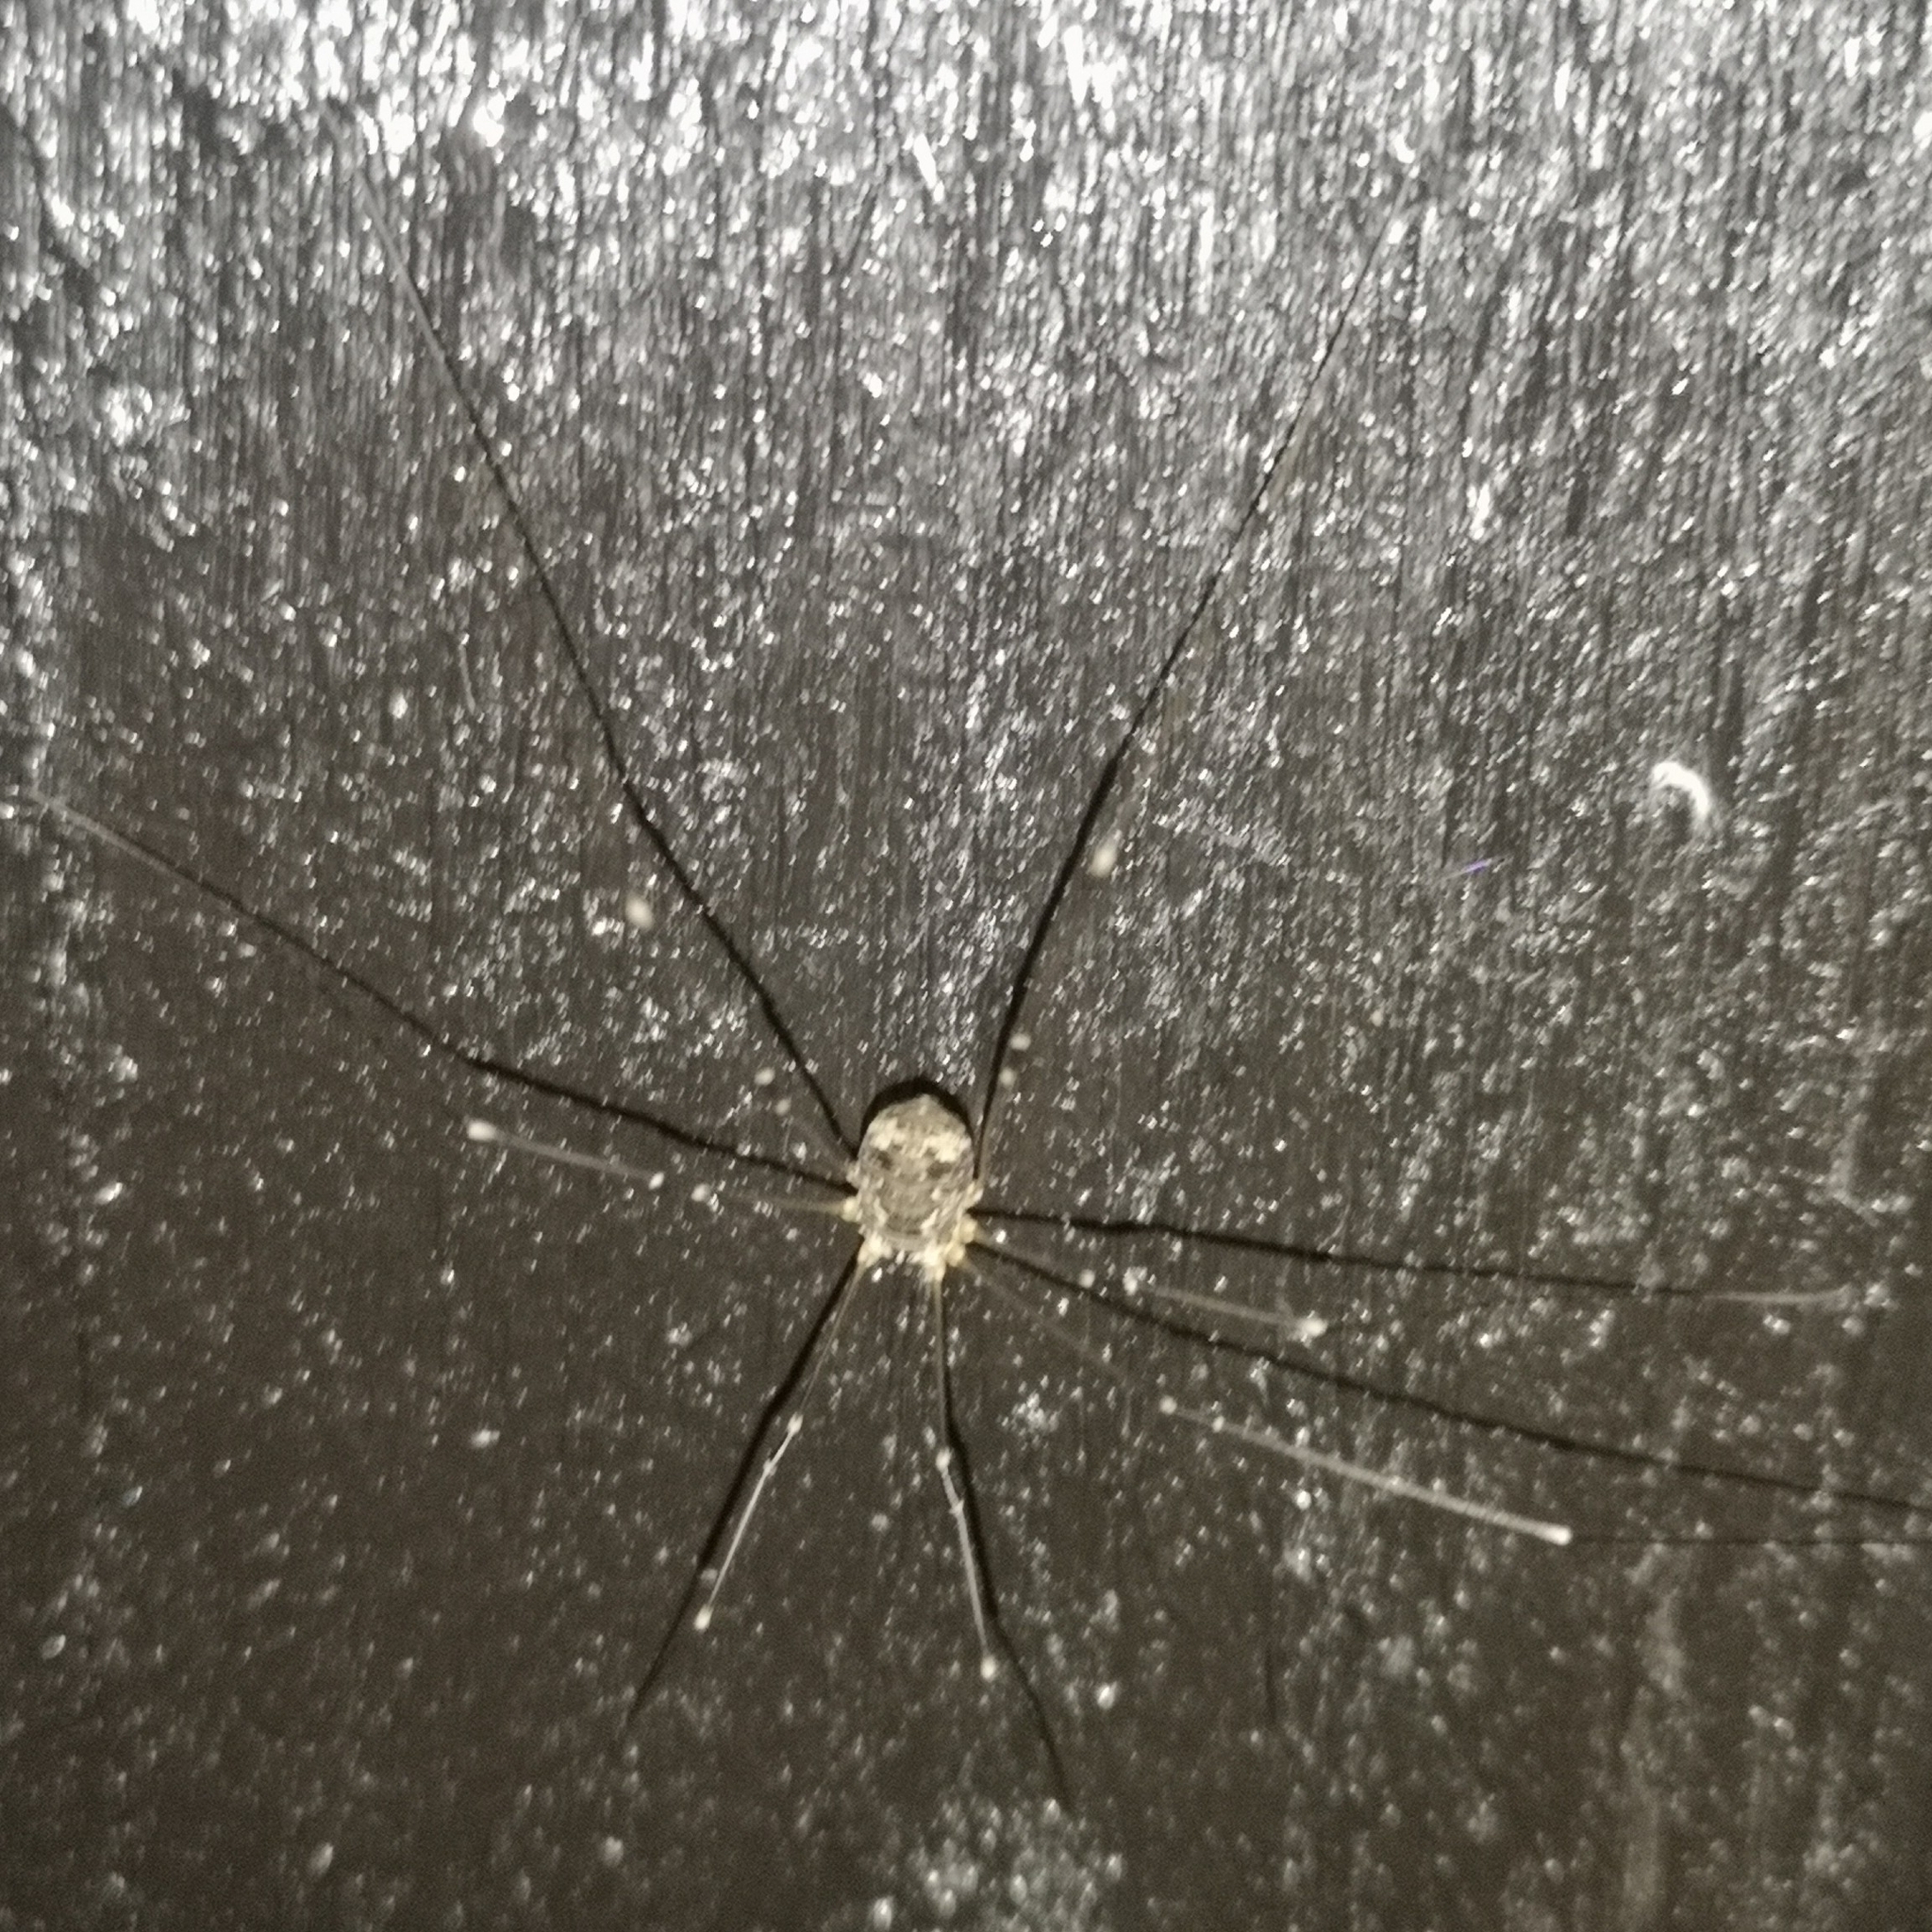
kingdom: Animalia
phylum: Arthropoda
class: Arachnida
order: Opiliones
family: Sclerosomatidae
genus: Leiobunum
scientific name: Leiobunum gracile
